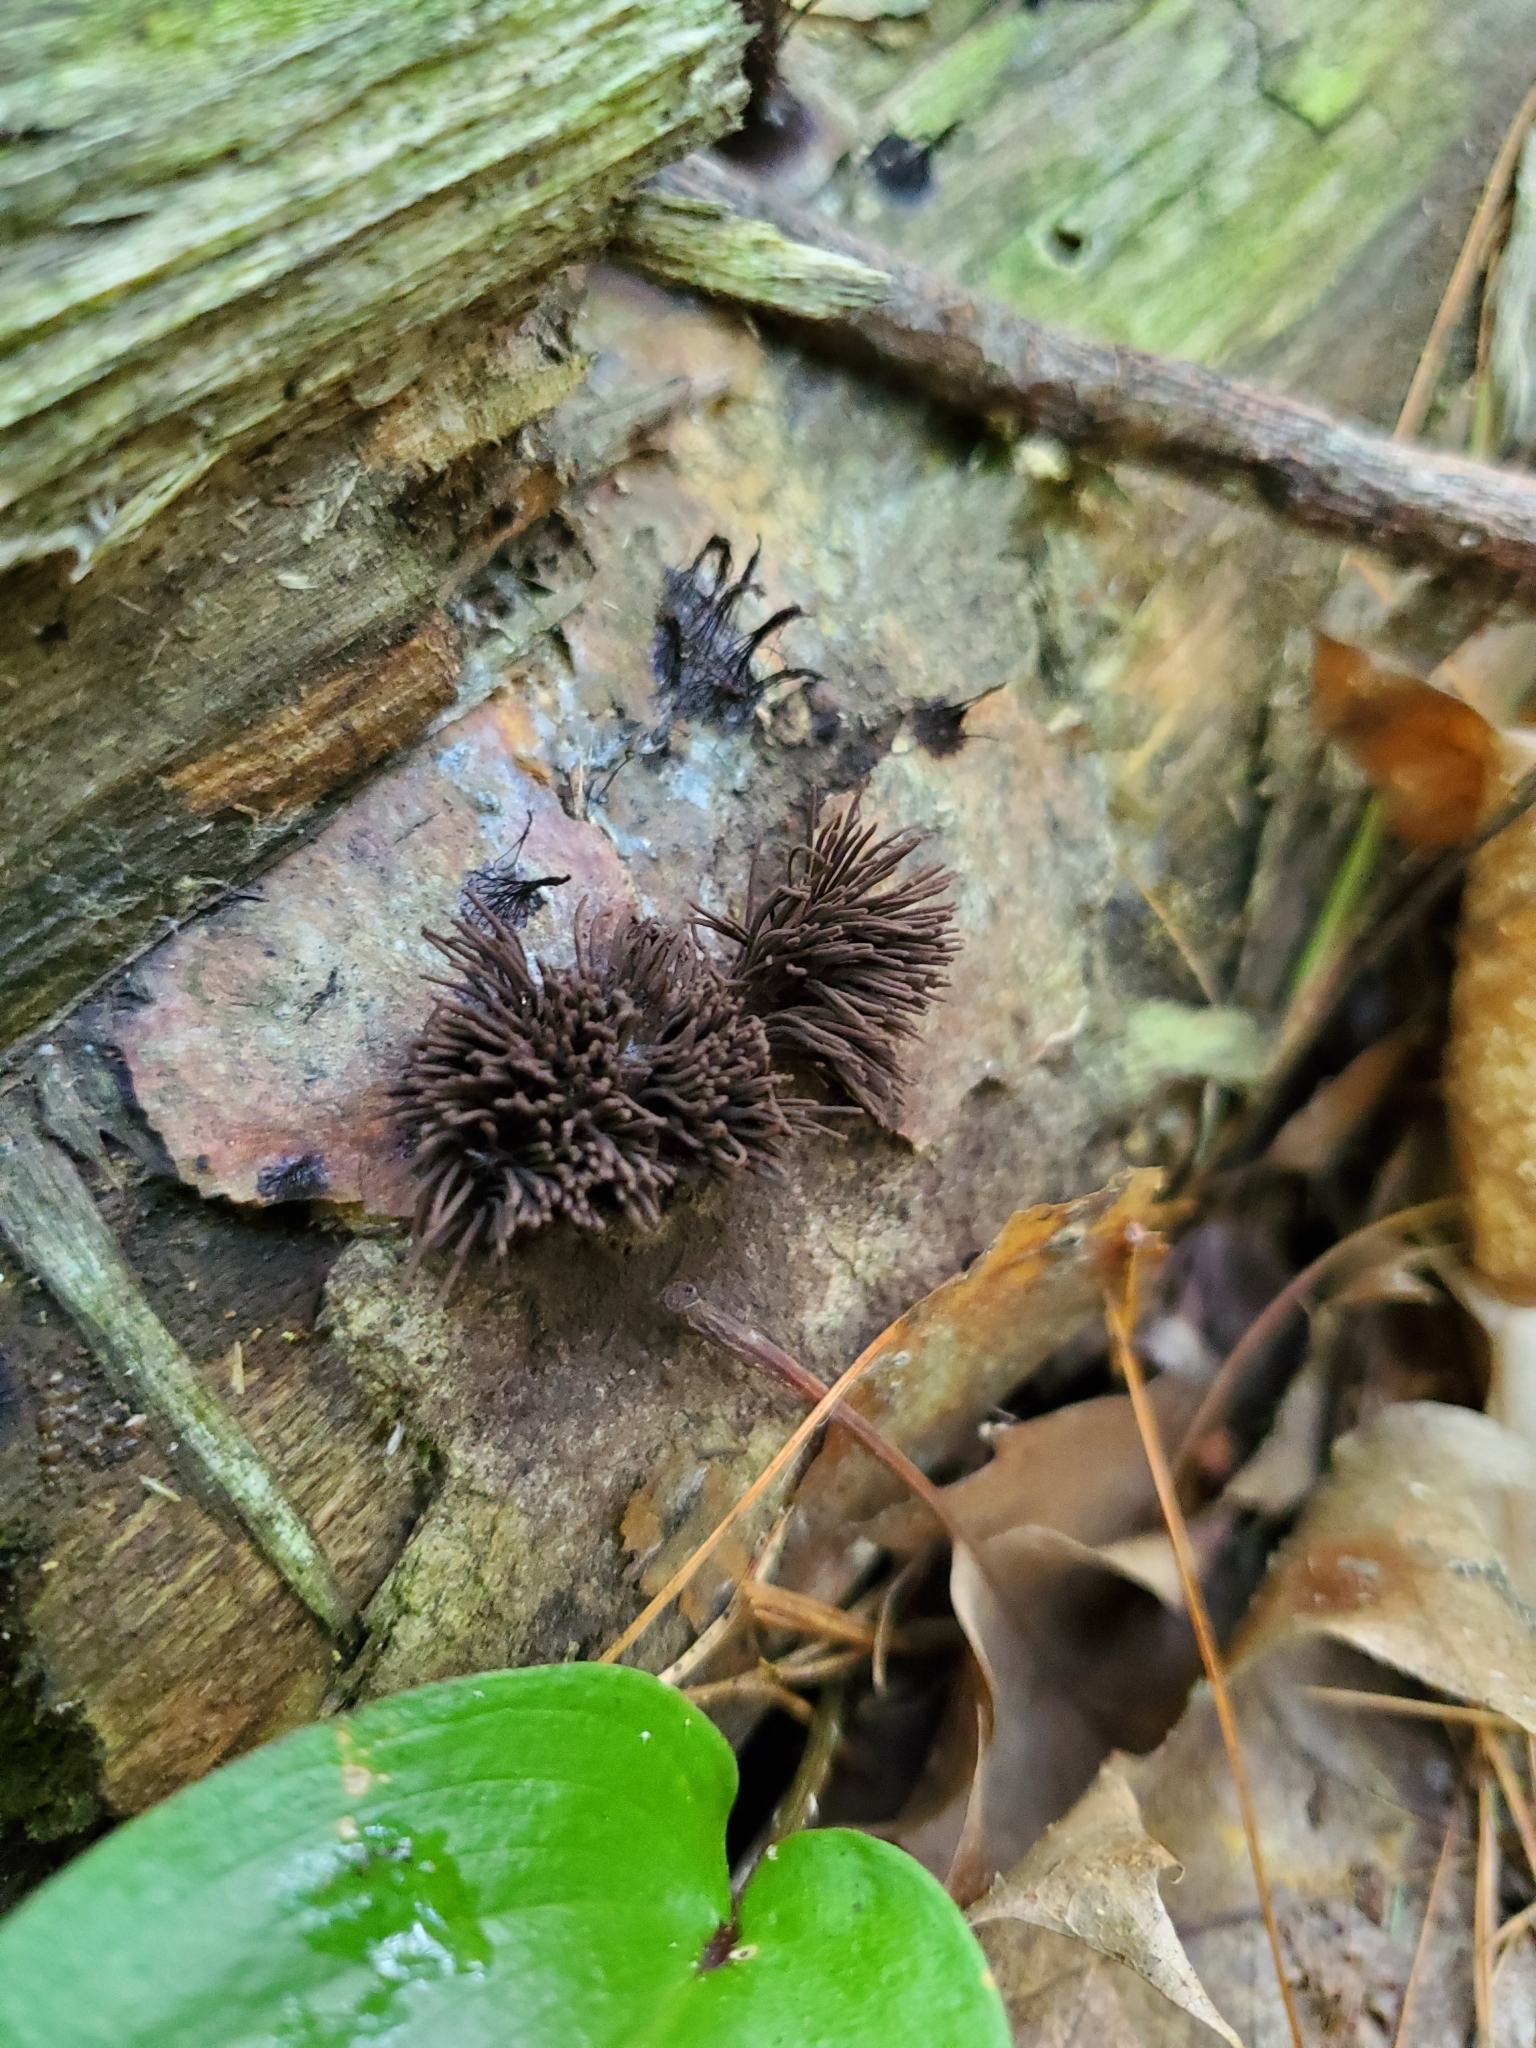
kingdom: Protozoa
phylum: Mycetozoa
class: Myxomycetes
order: Stemonitidales
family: Stemonitidaceae
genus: Stemonitis
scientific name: Stemonitis splendens
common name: Chocolate tube slime
